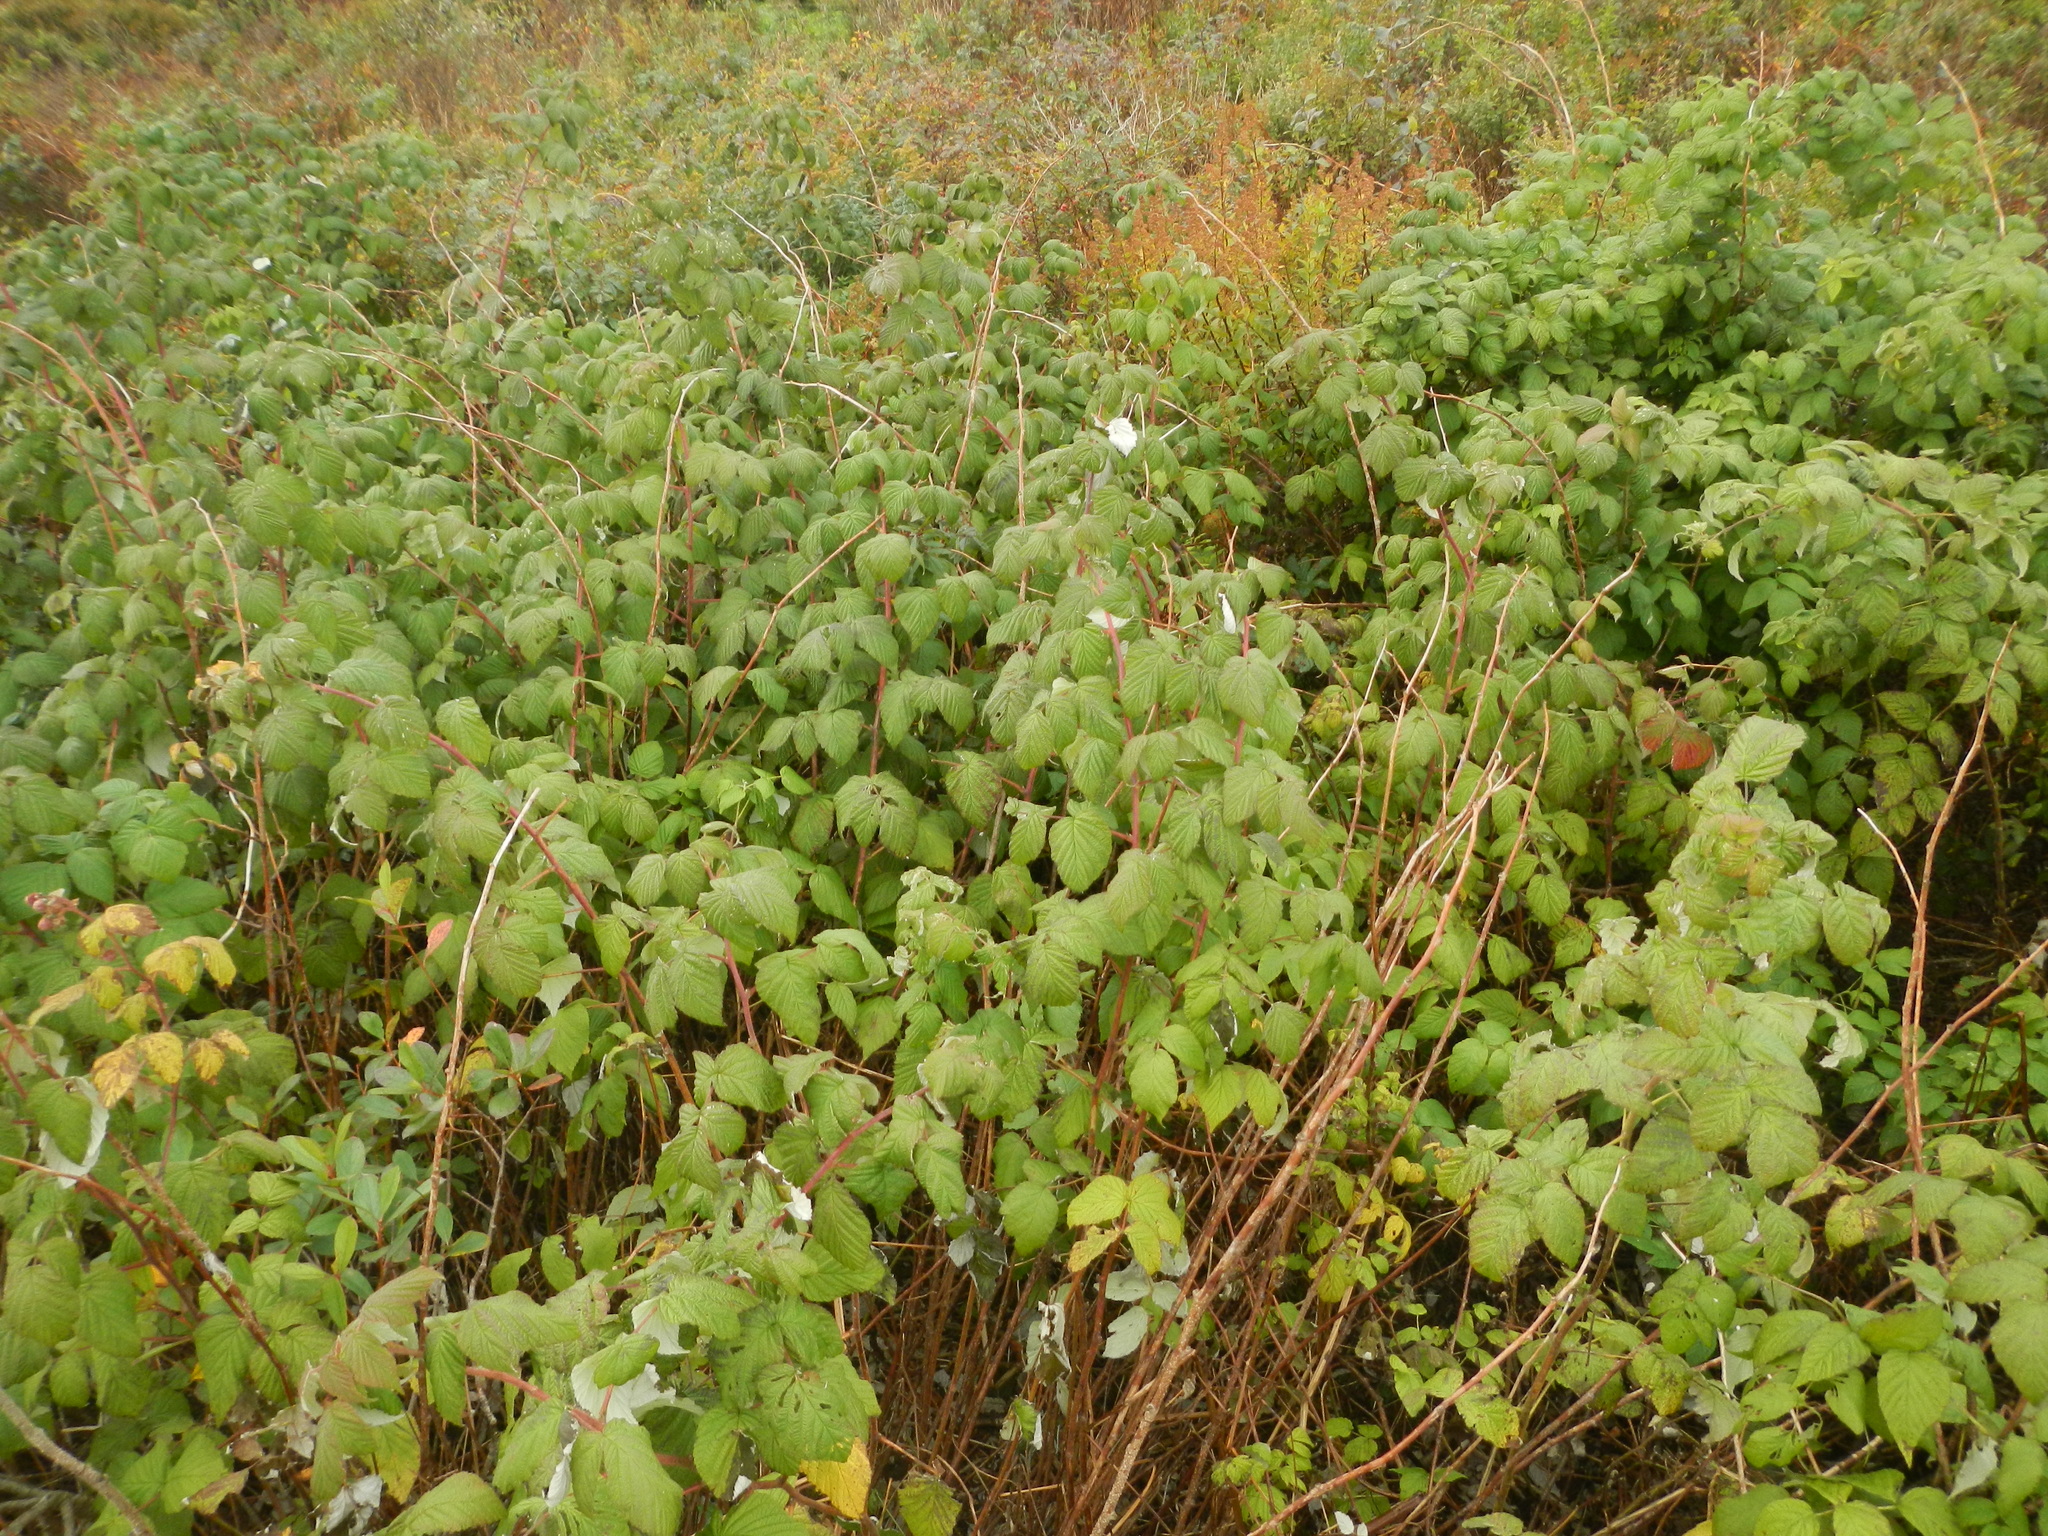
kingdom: Plantae
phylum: Tracheophyta
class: Magnoliopsida
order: Rosales
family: Rosaceae
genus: Rubus
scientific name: Rubus idaeus
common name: Raspberry
